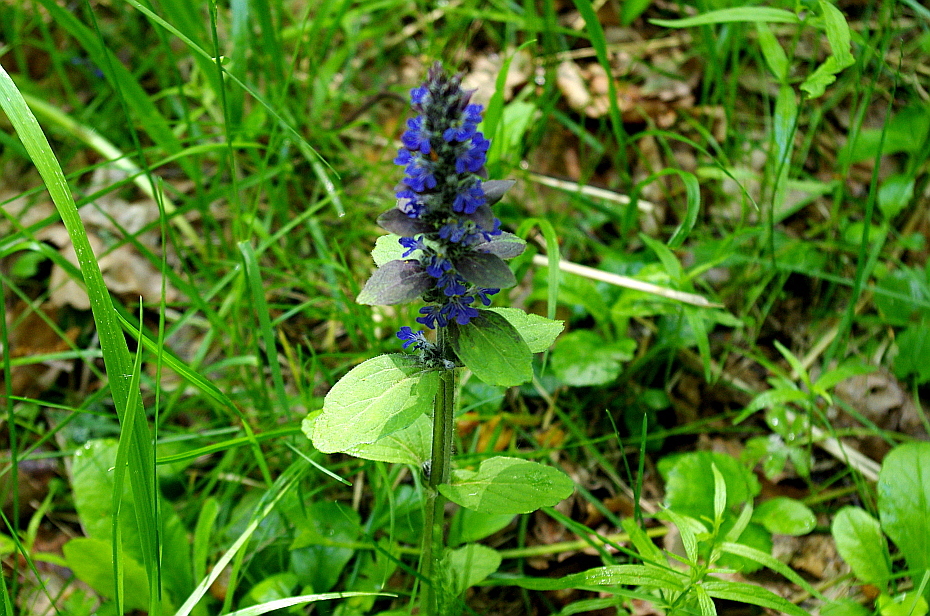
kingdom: Plantae
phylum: Tracheophyta
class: Magnoliopsida
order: Lamiales
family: Lamiaceae
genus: Ajuga
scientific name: Ajuga reptans
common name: Bugle
